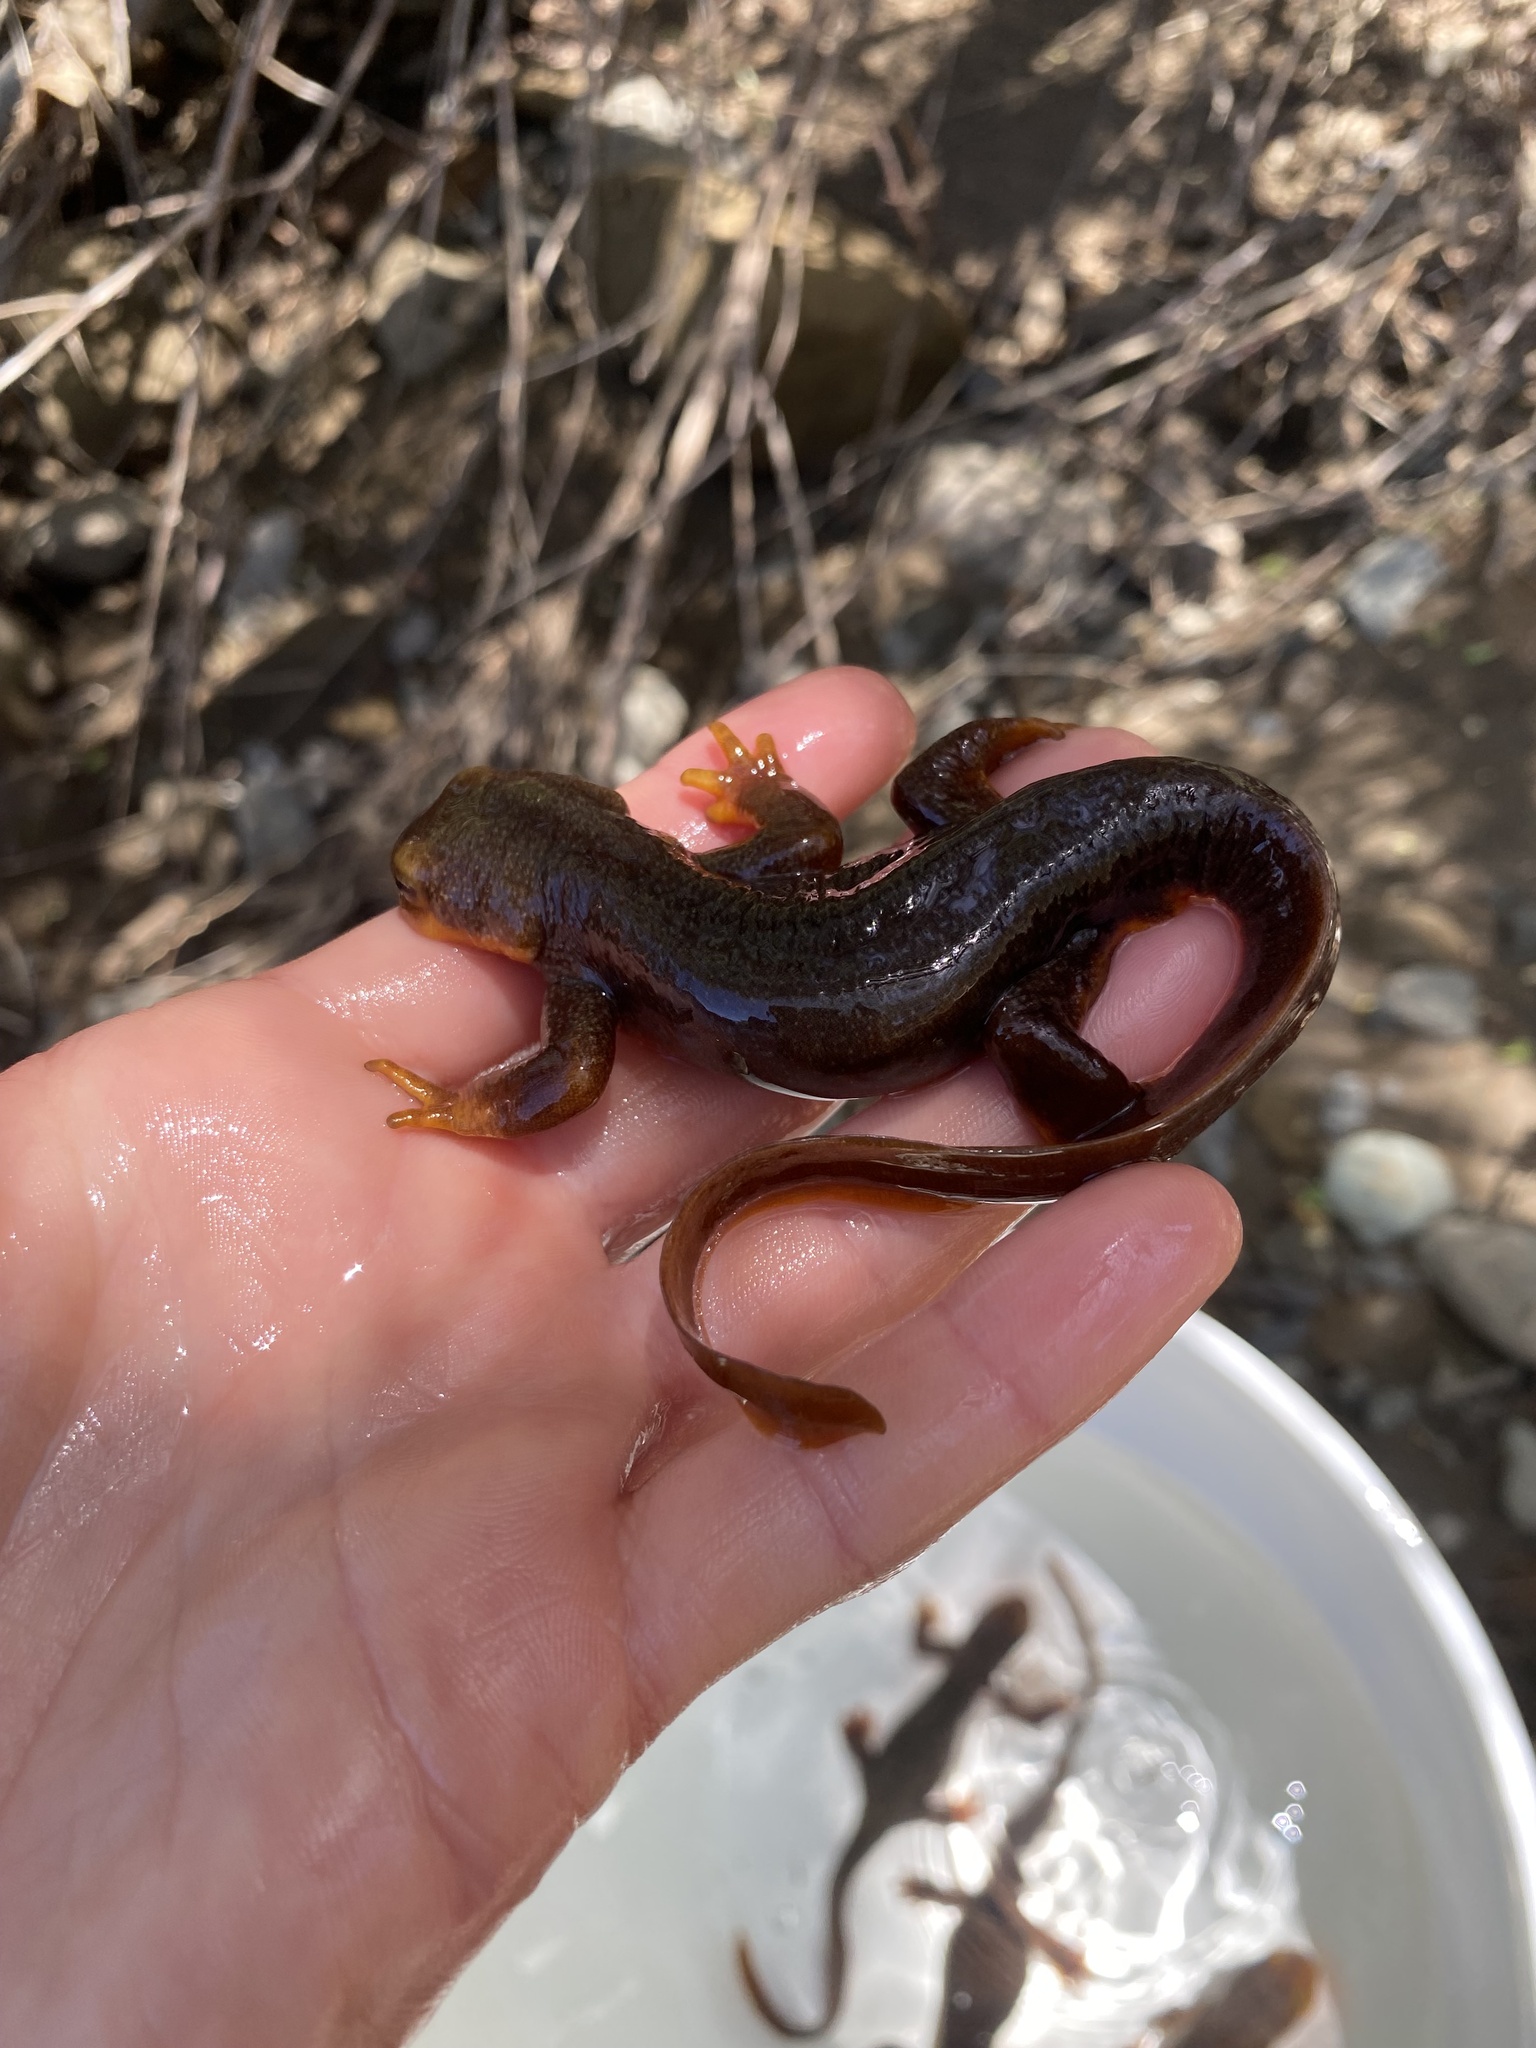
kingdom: Animalia
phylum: Chordata
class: Amphibia
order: Caudata
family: Salamandridae
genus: Taricha
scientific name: Taricha torosa
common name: California newt
